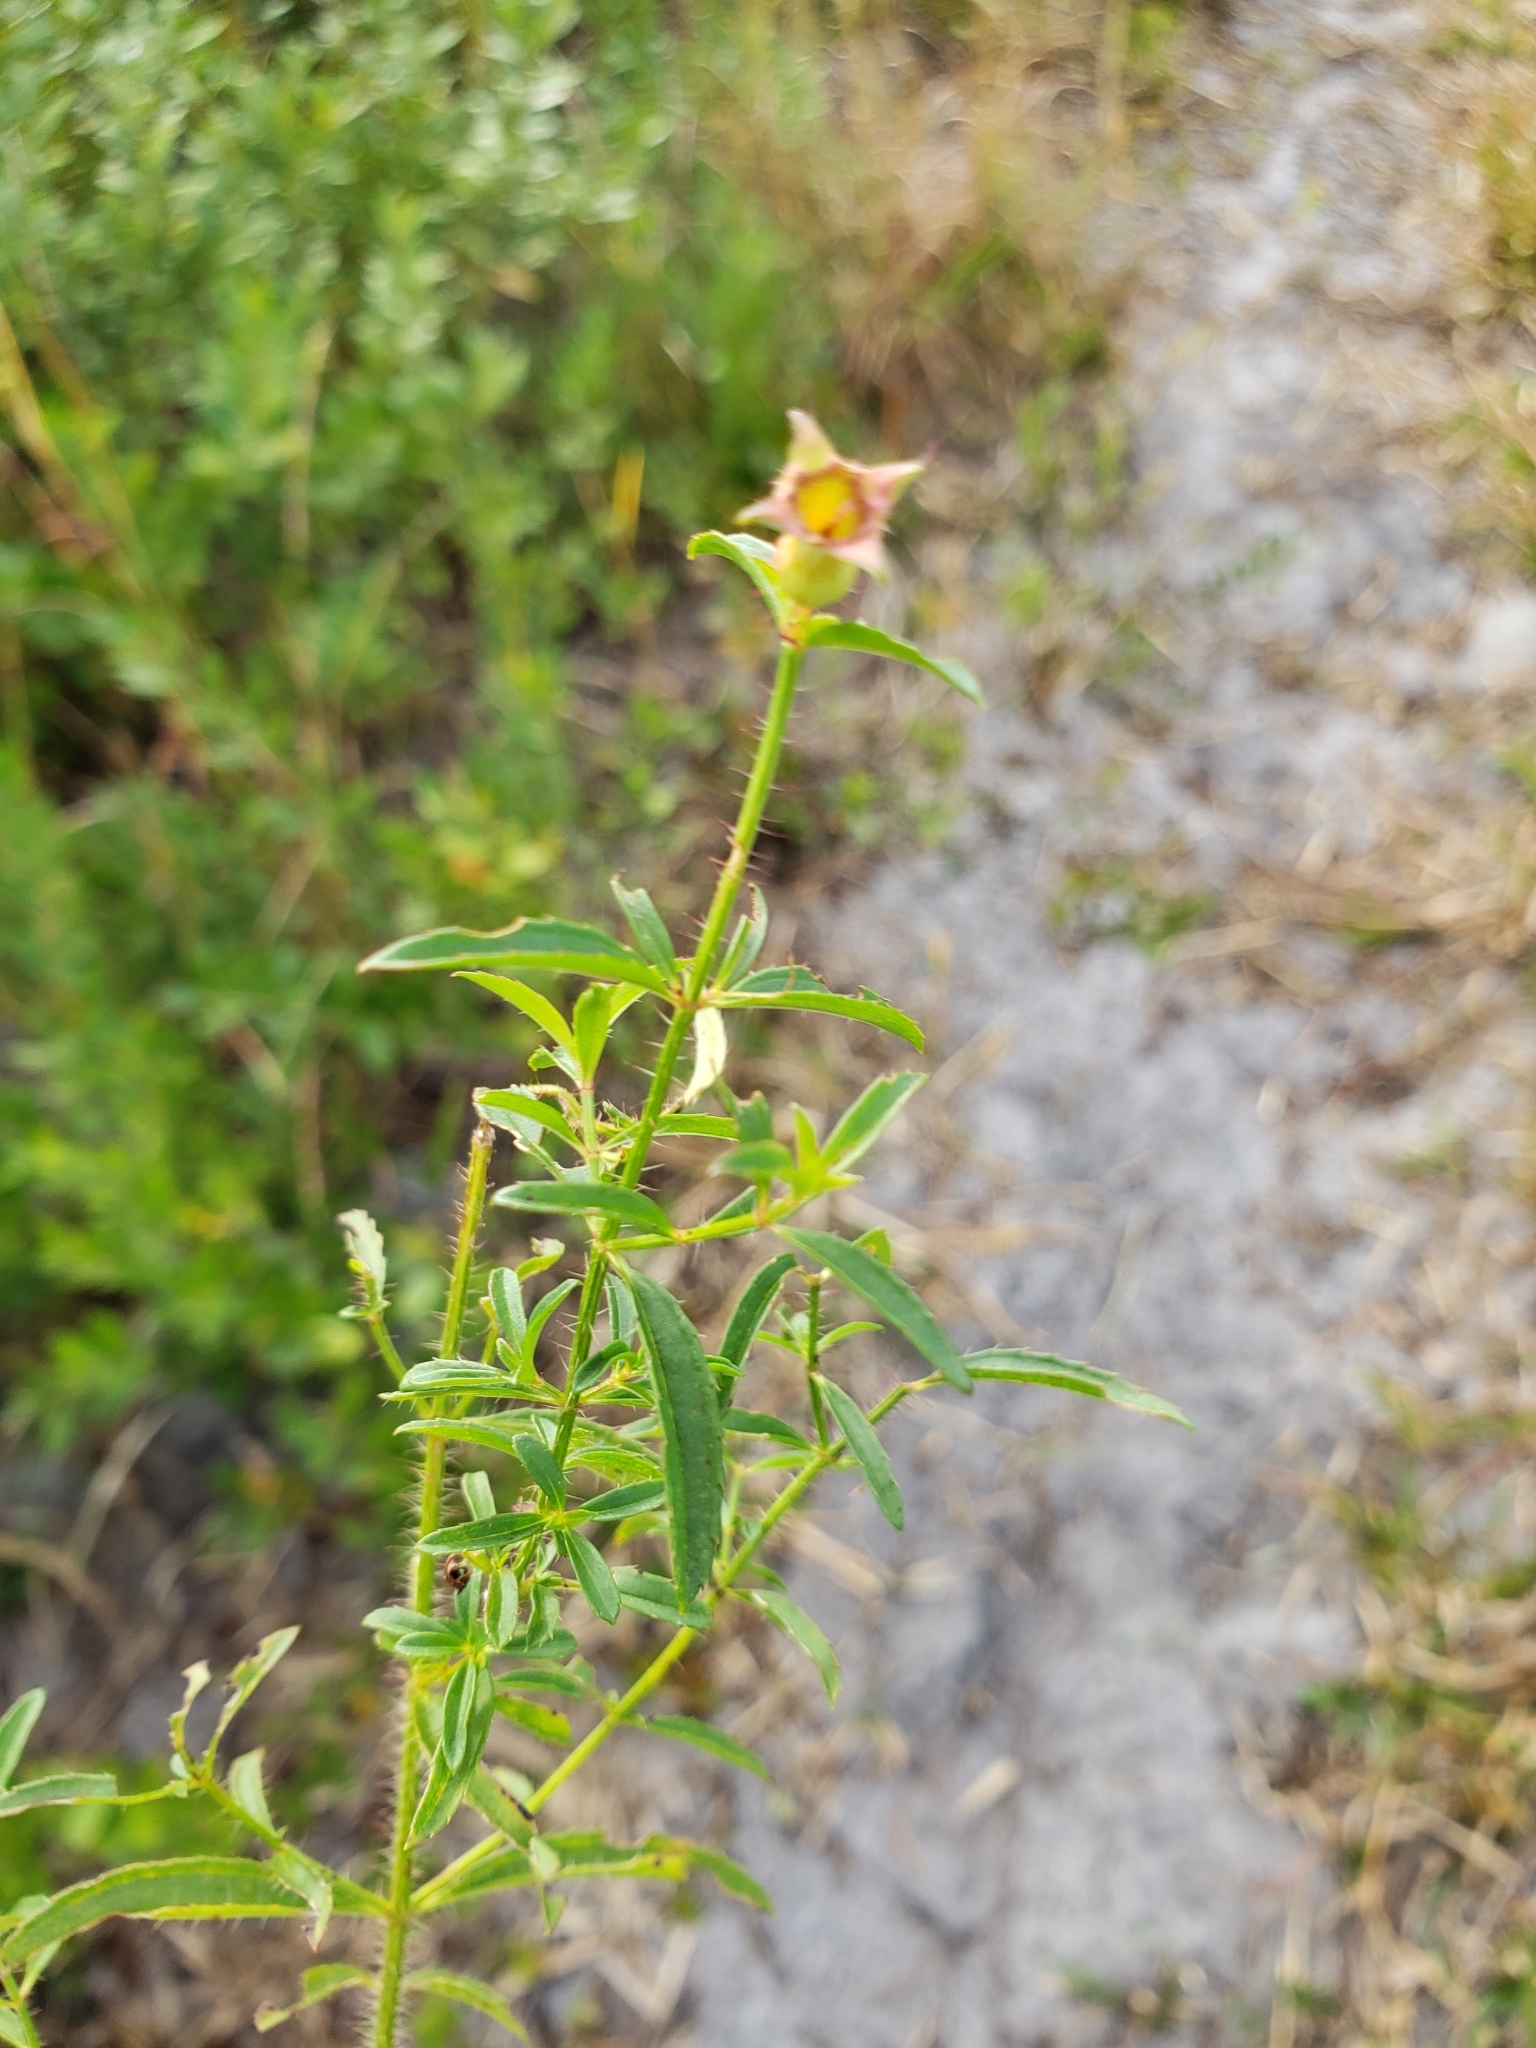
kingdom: Plantae
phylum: Tracheophyta
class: Magnoliopsida
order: Myrtales
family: Melastomataceae
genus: Rhexia
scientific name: Rhexia mariana
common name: Dull meadow-pitcher
